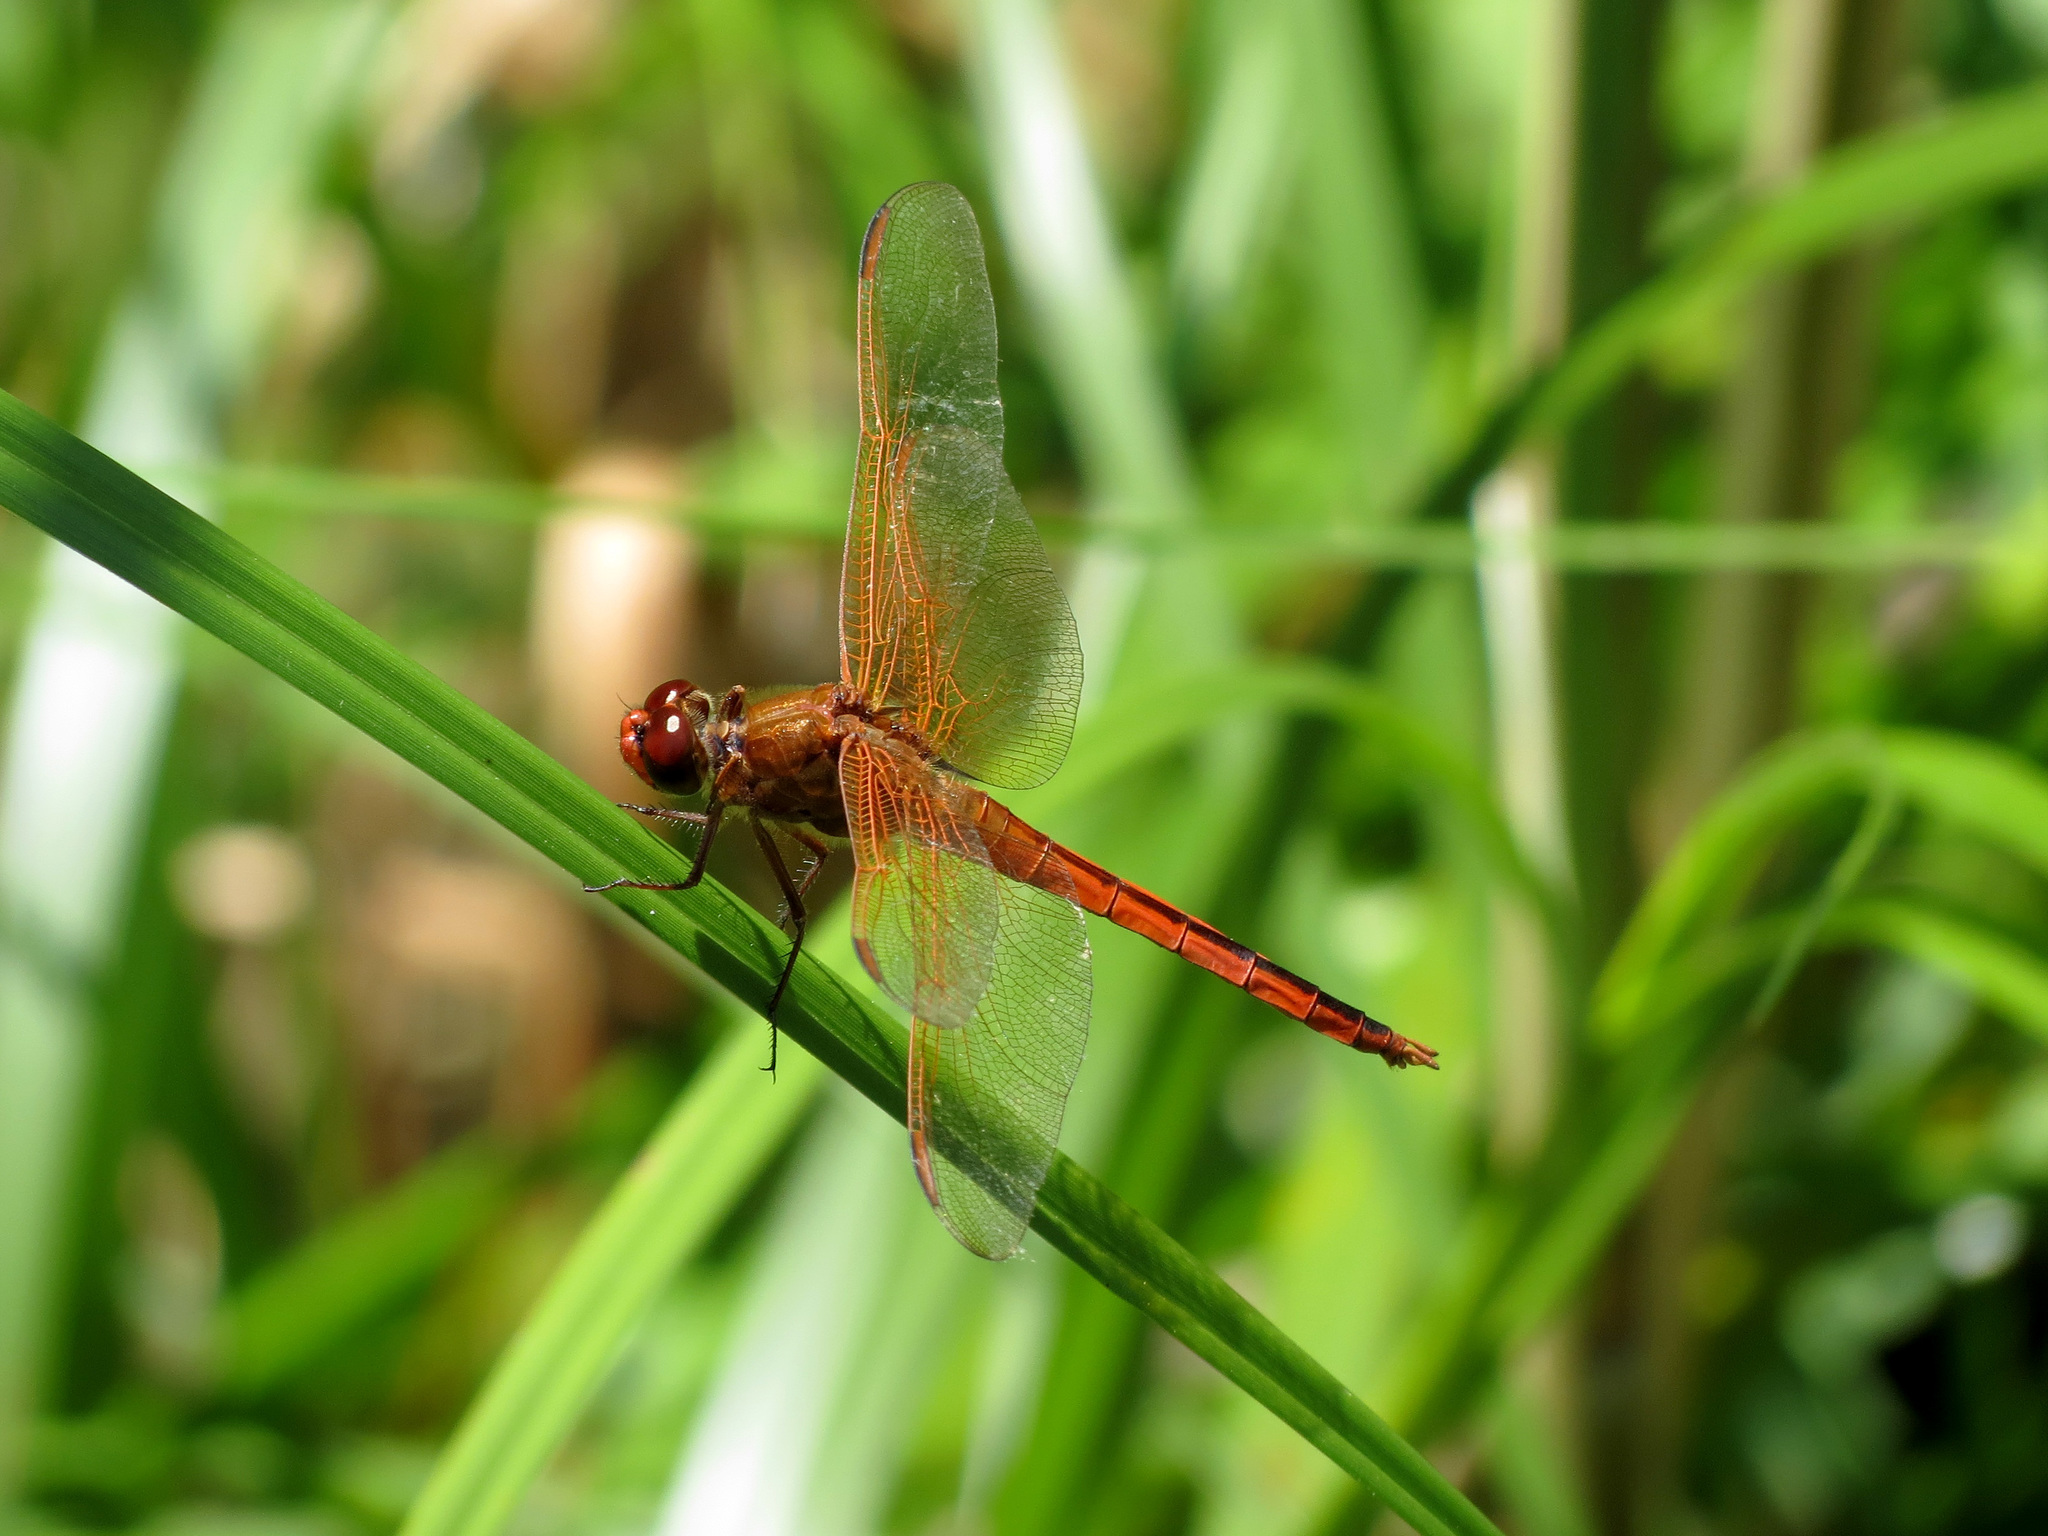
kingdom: Animalia
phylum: Arthropoda
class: Insecta
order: Odonata
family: Libellulidae
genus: Libellula
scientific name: Libellula needhami
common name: Needham's skimmer
